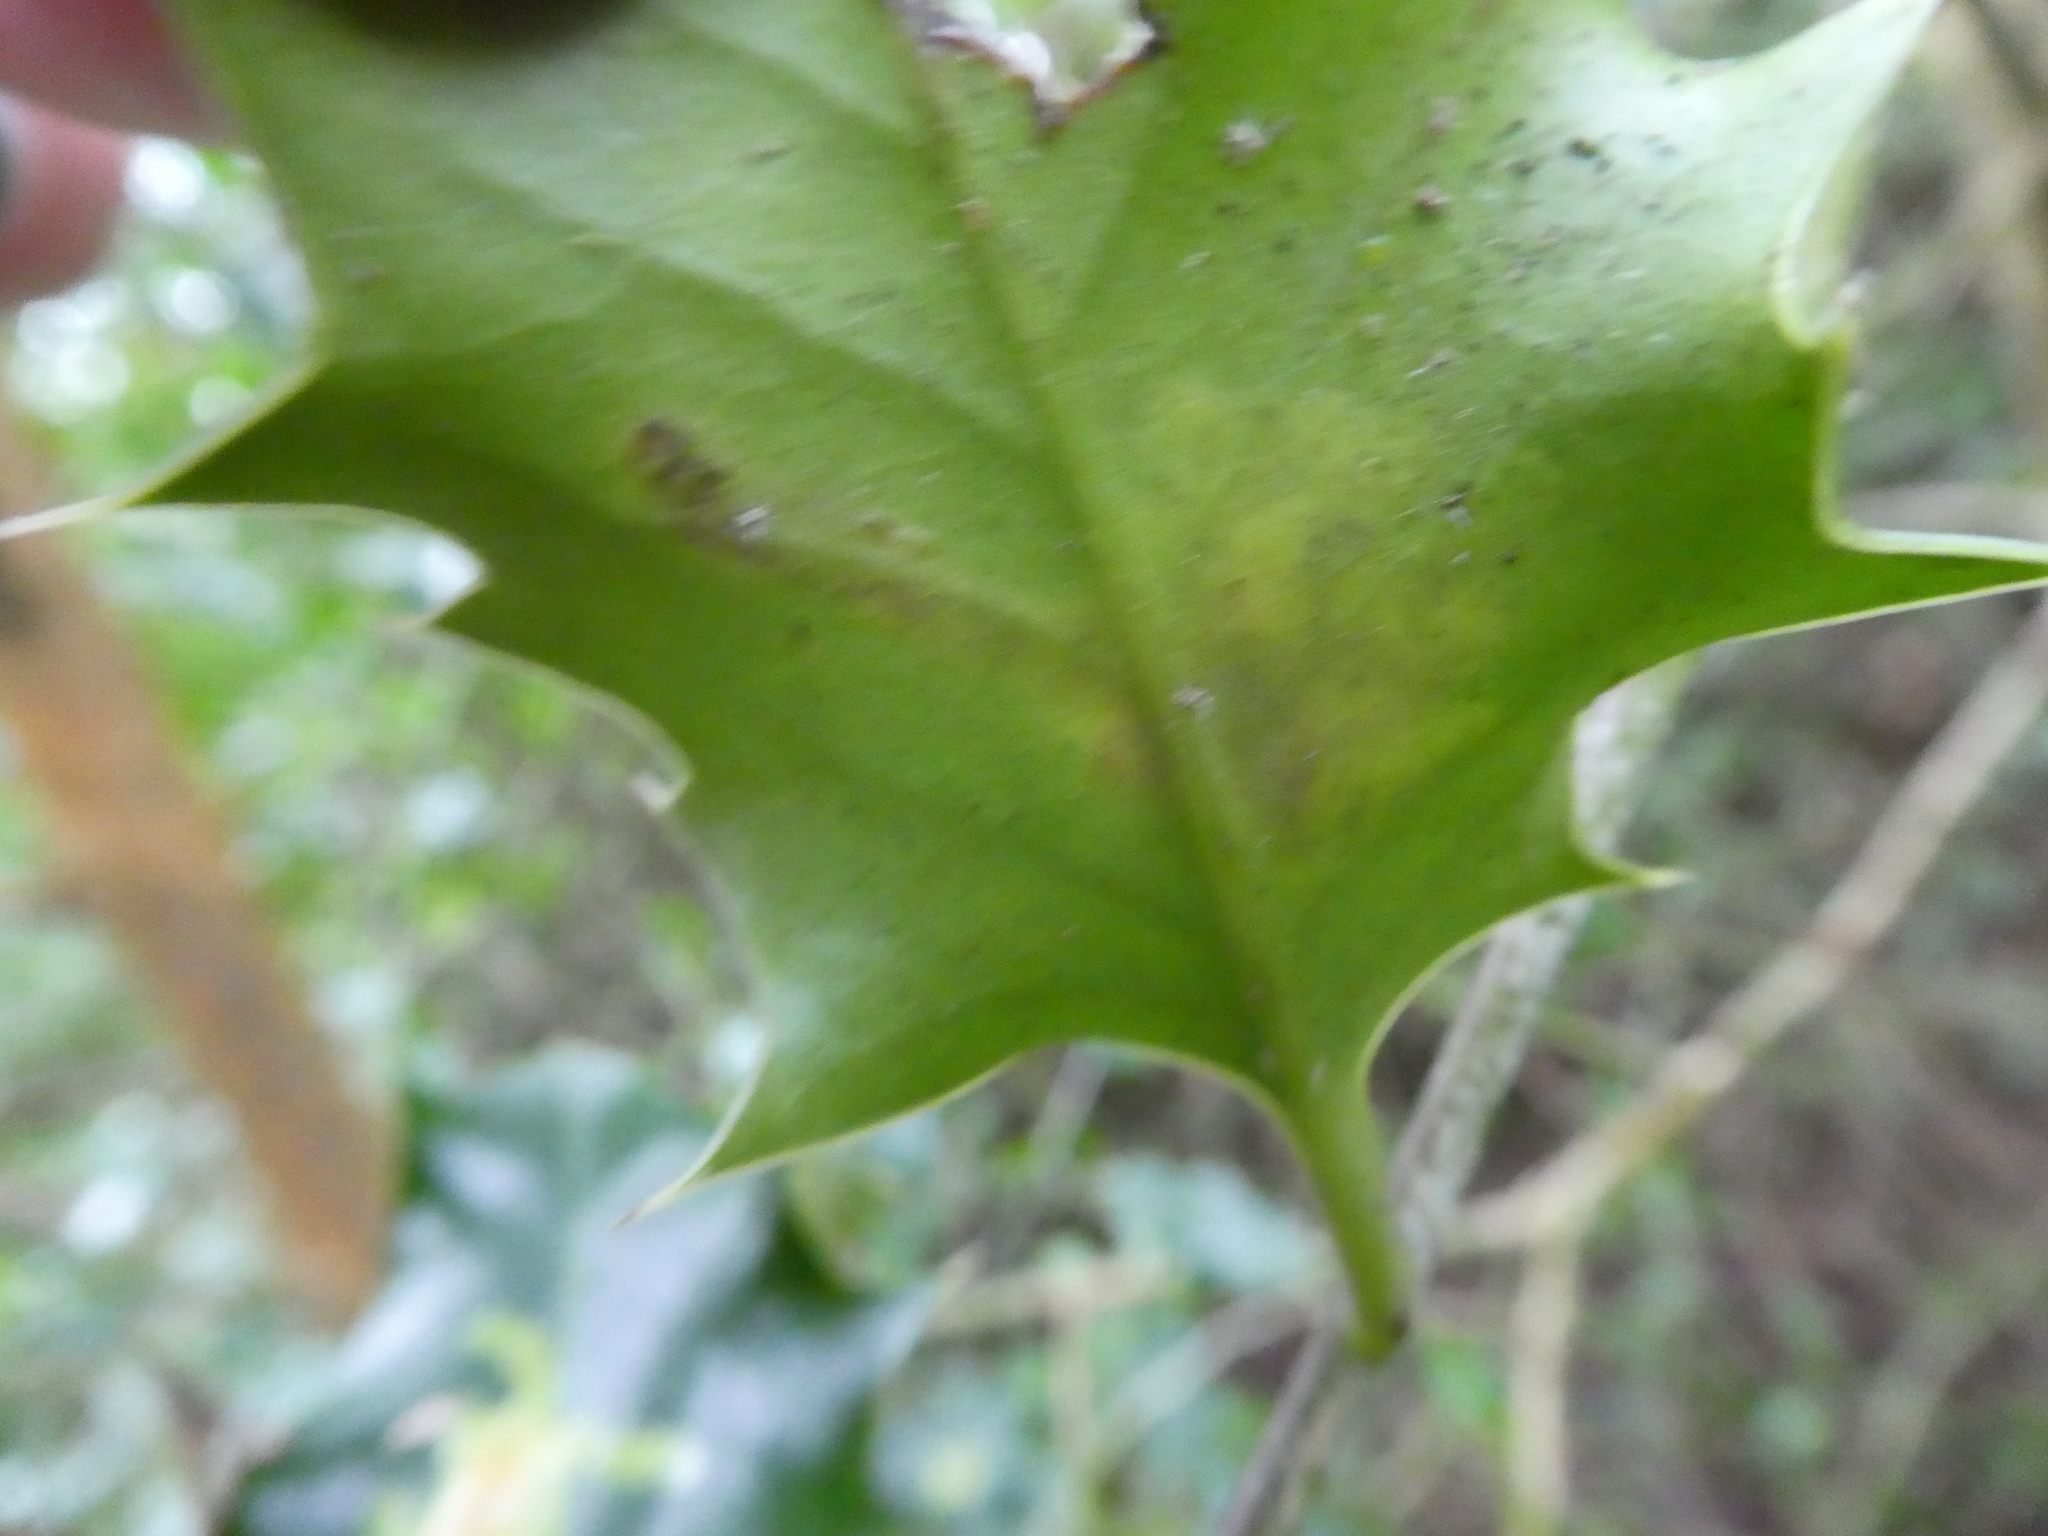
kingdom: Animalia
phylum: Arthropoda
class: Insecta
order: Diptera
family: Agromyzidae
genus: Phytomyza
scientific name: Phytomyza ilicis
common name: Holly leafminer
